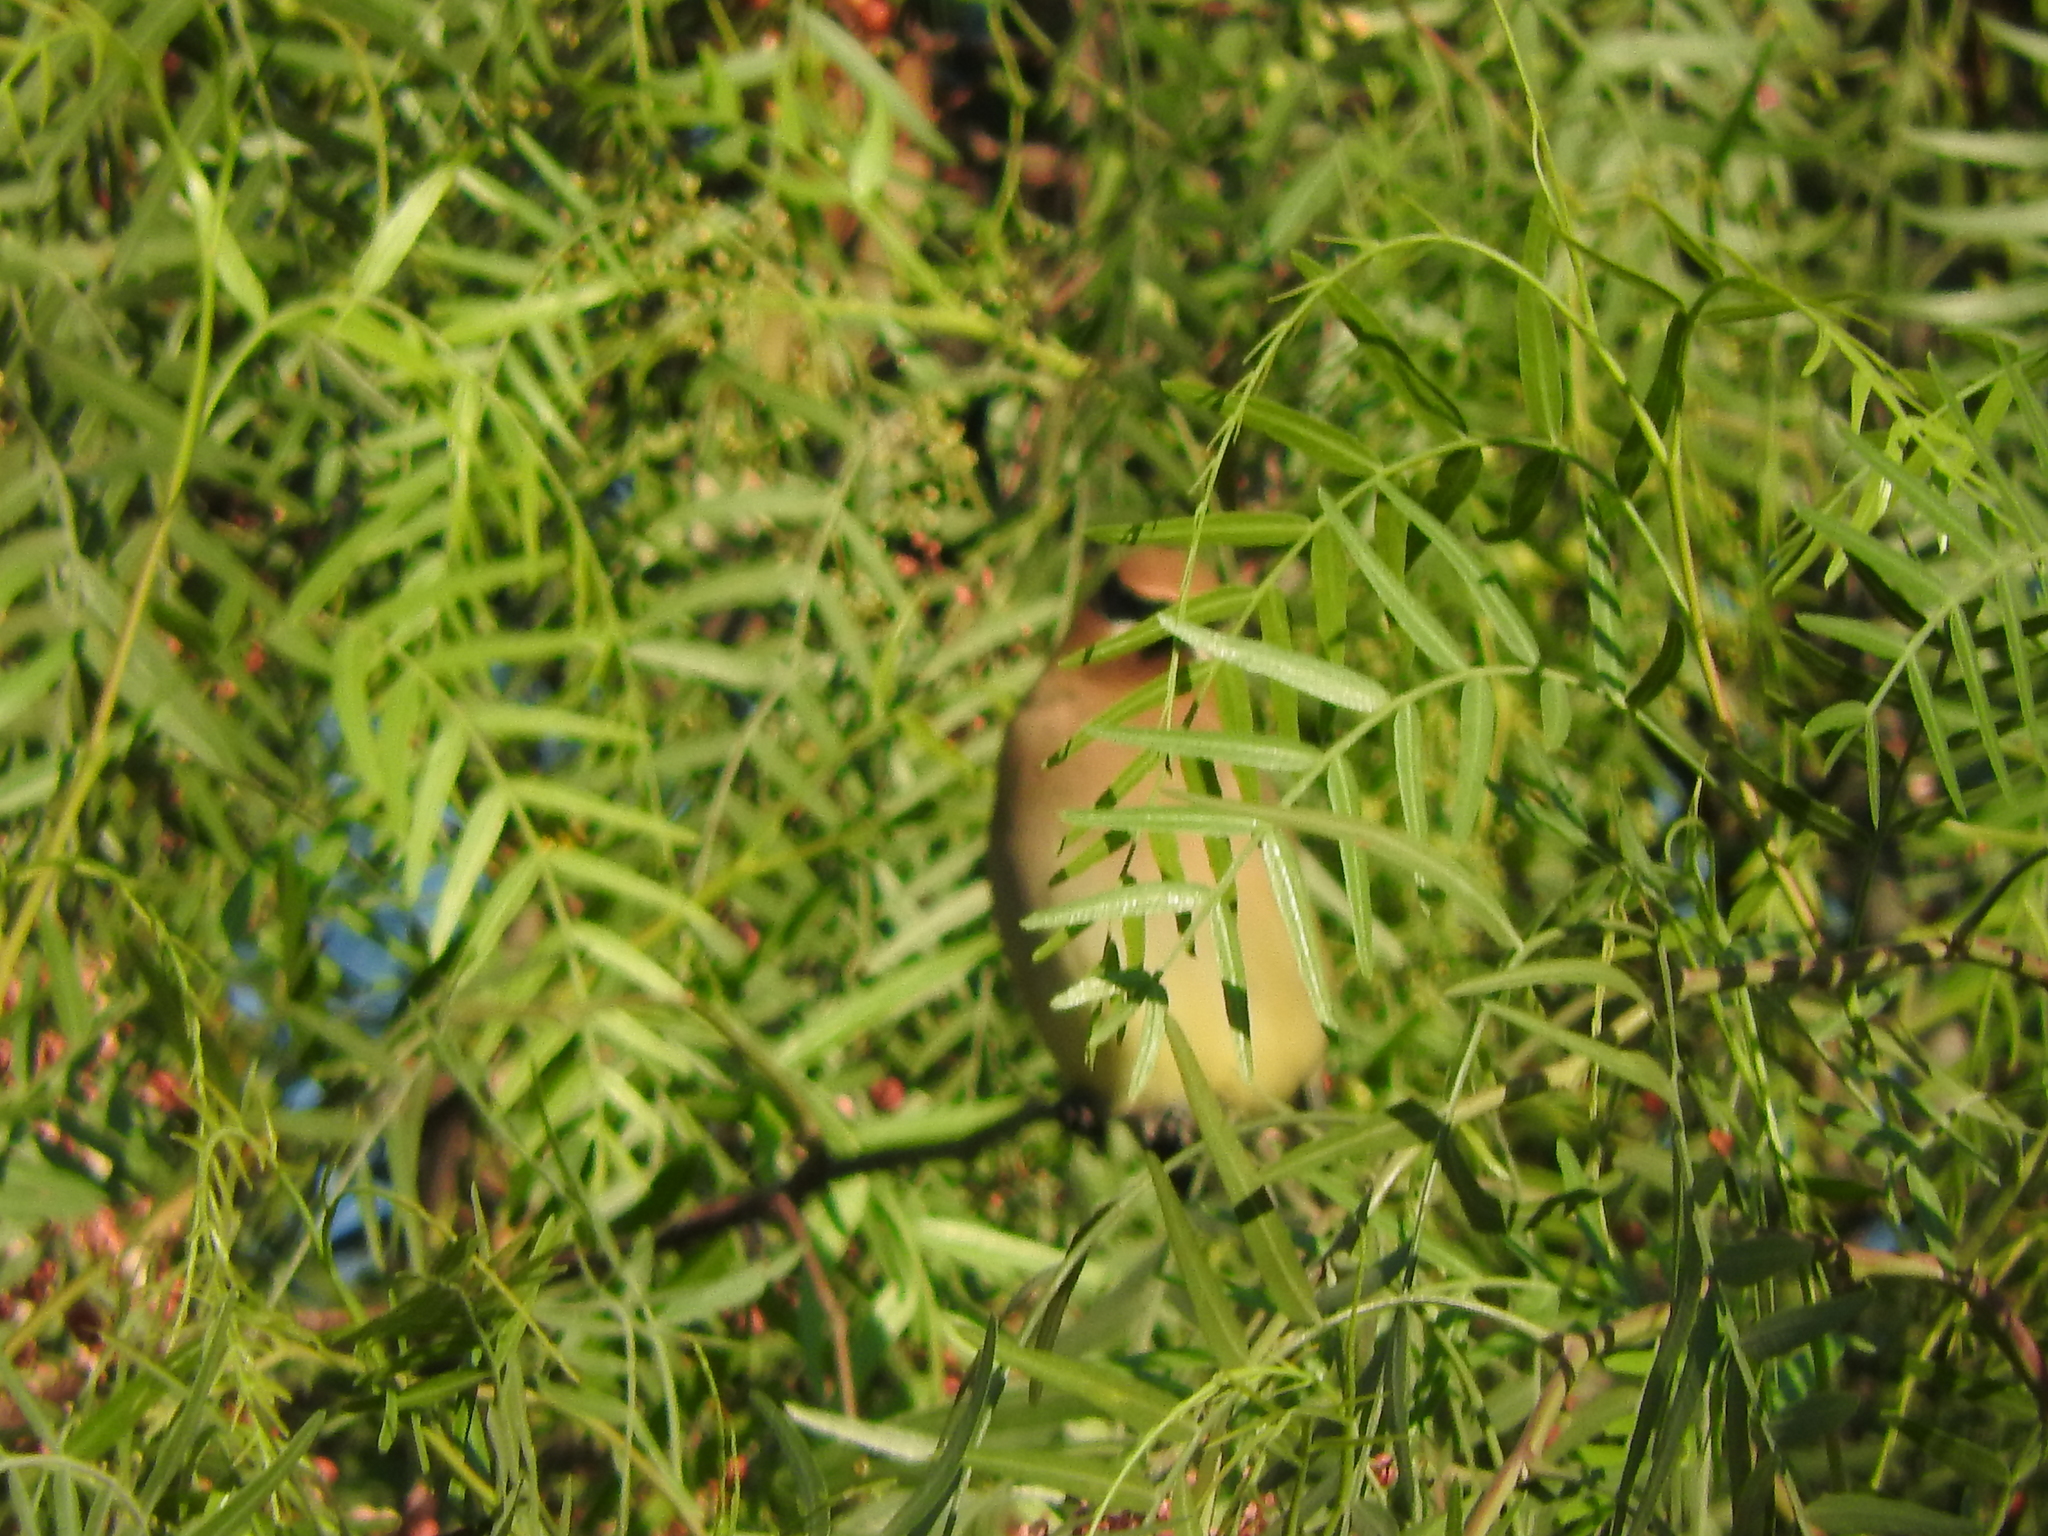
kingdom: Animalia
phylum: Chordata
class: Aves
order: Passeriformes
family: Bombycillidae
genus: Bombycilla
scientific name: Bombycilla cedrorum
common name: Cedar waxwing
